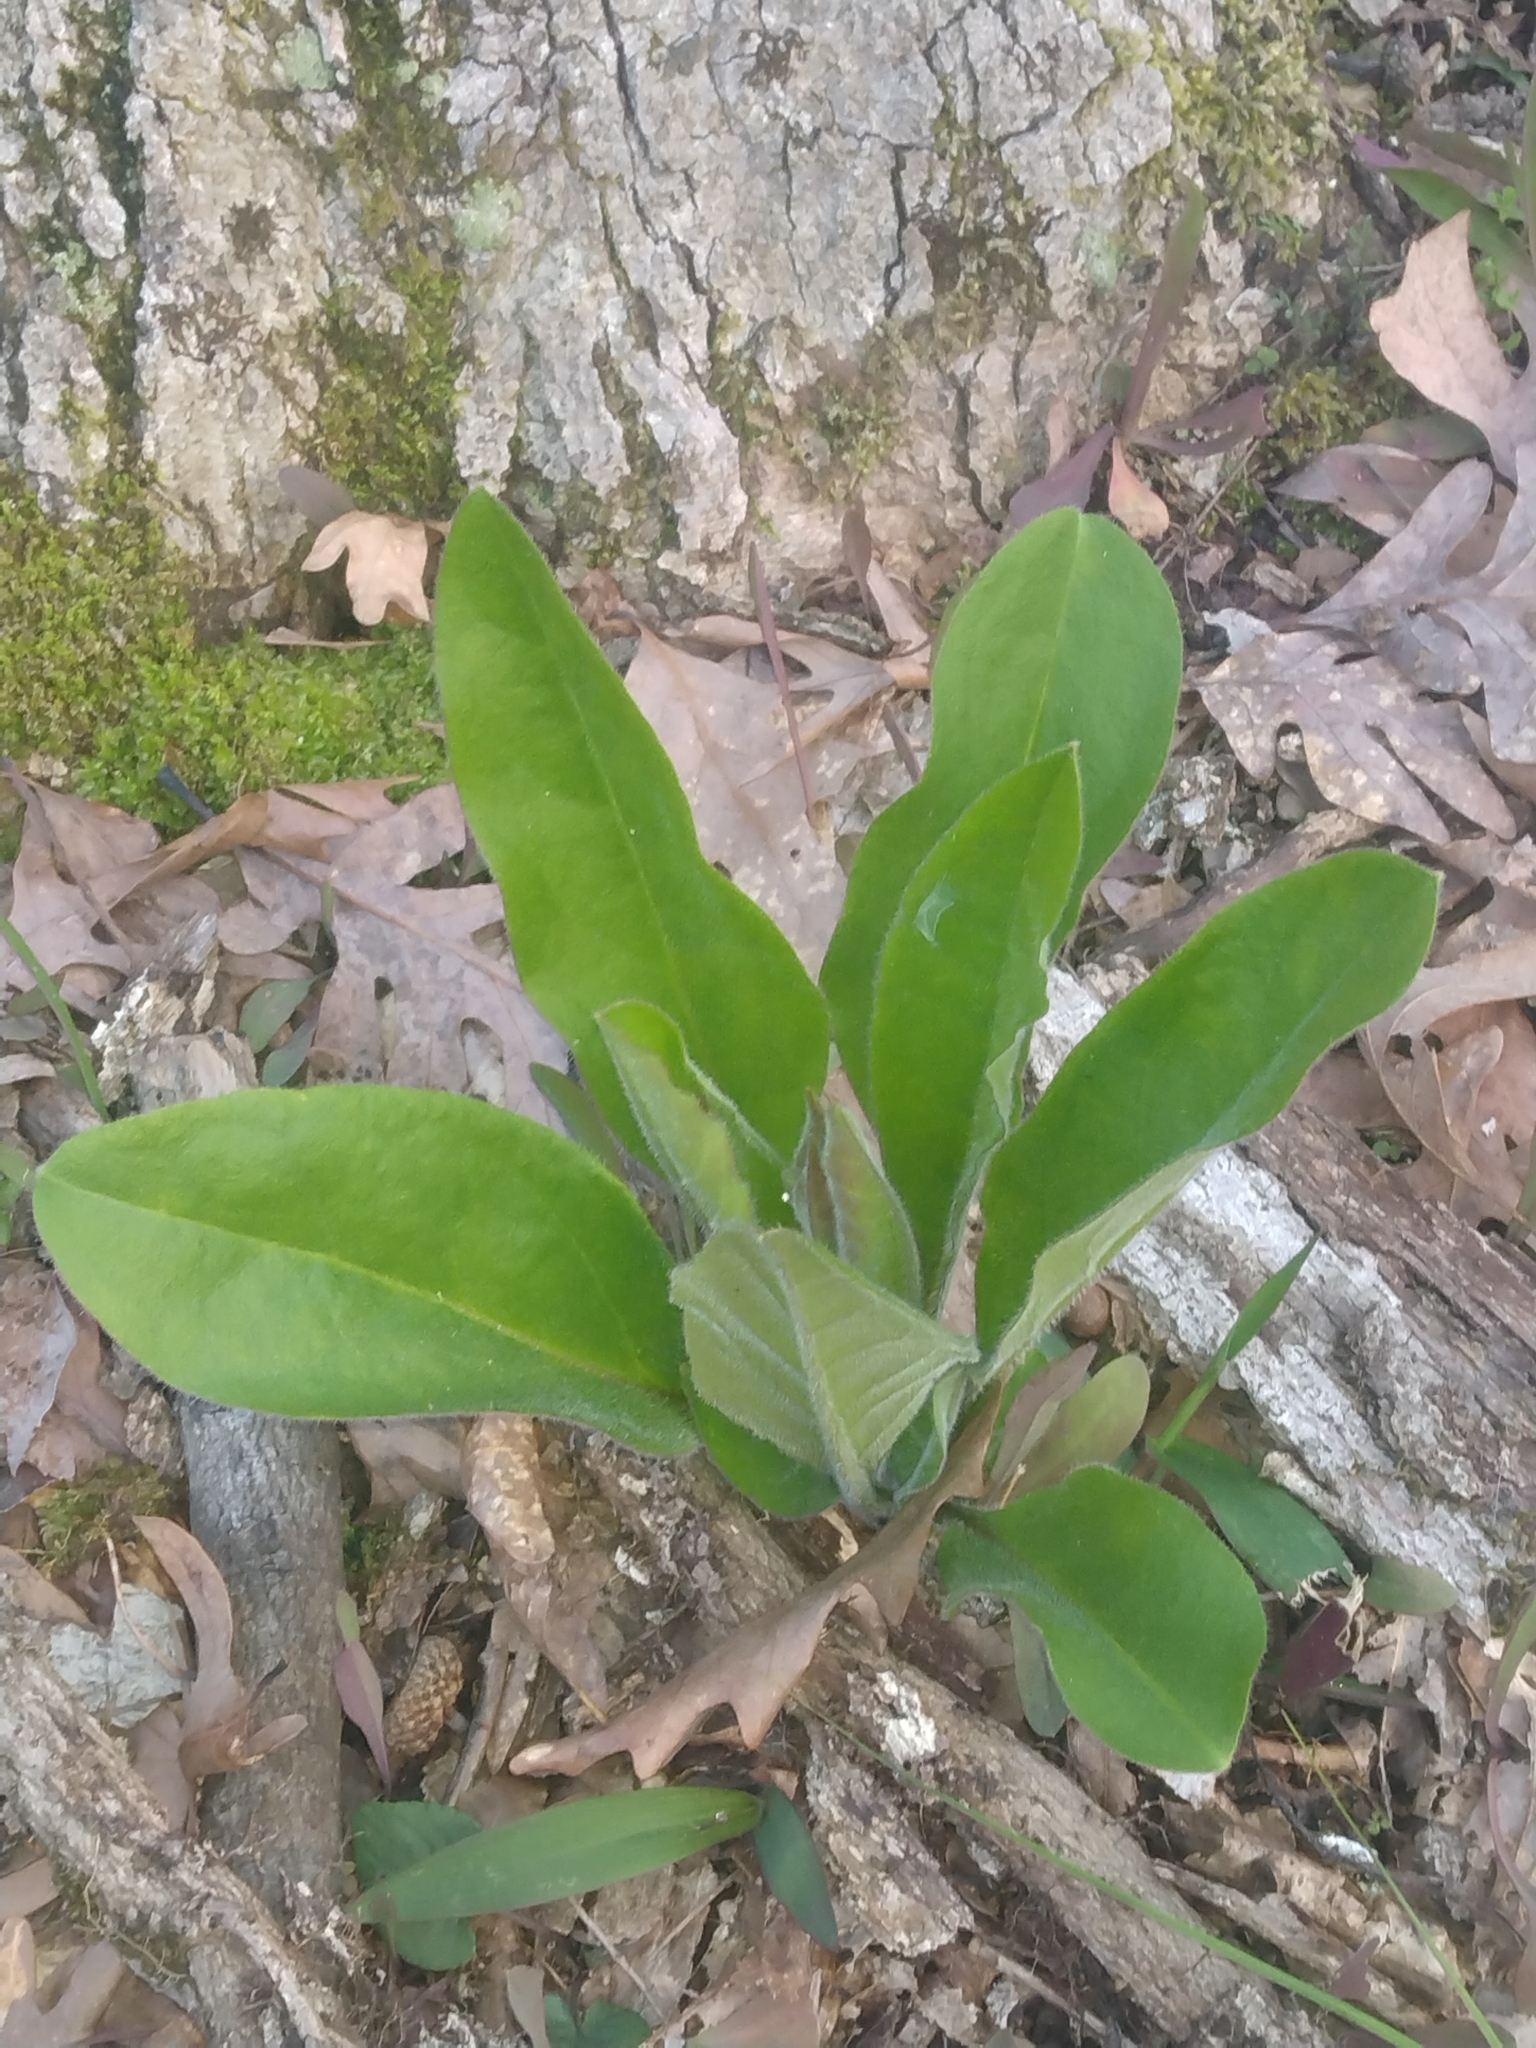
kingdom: Plantae
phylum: Tracheophyta
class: Magnoliopsida
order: Boraginales
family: Boraginaceae
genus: Andersonglossum
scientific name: Andersonglossum virginianum
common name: Wild comfrey
